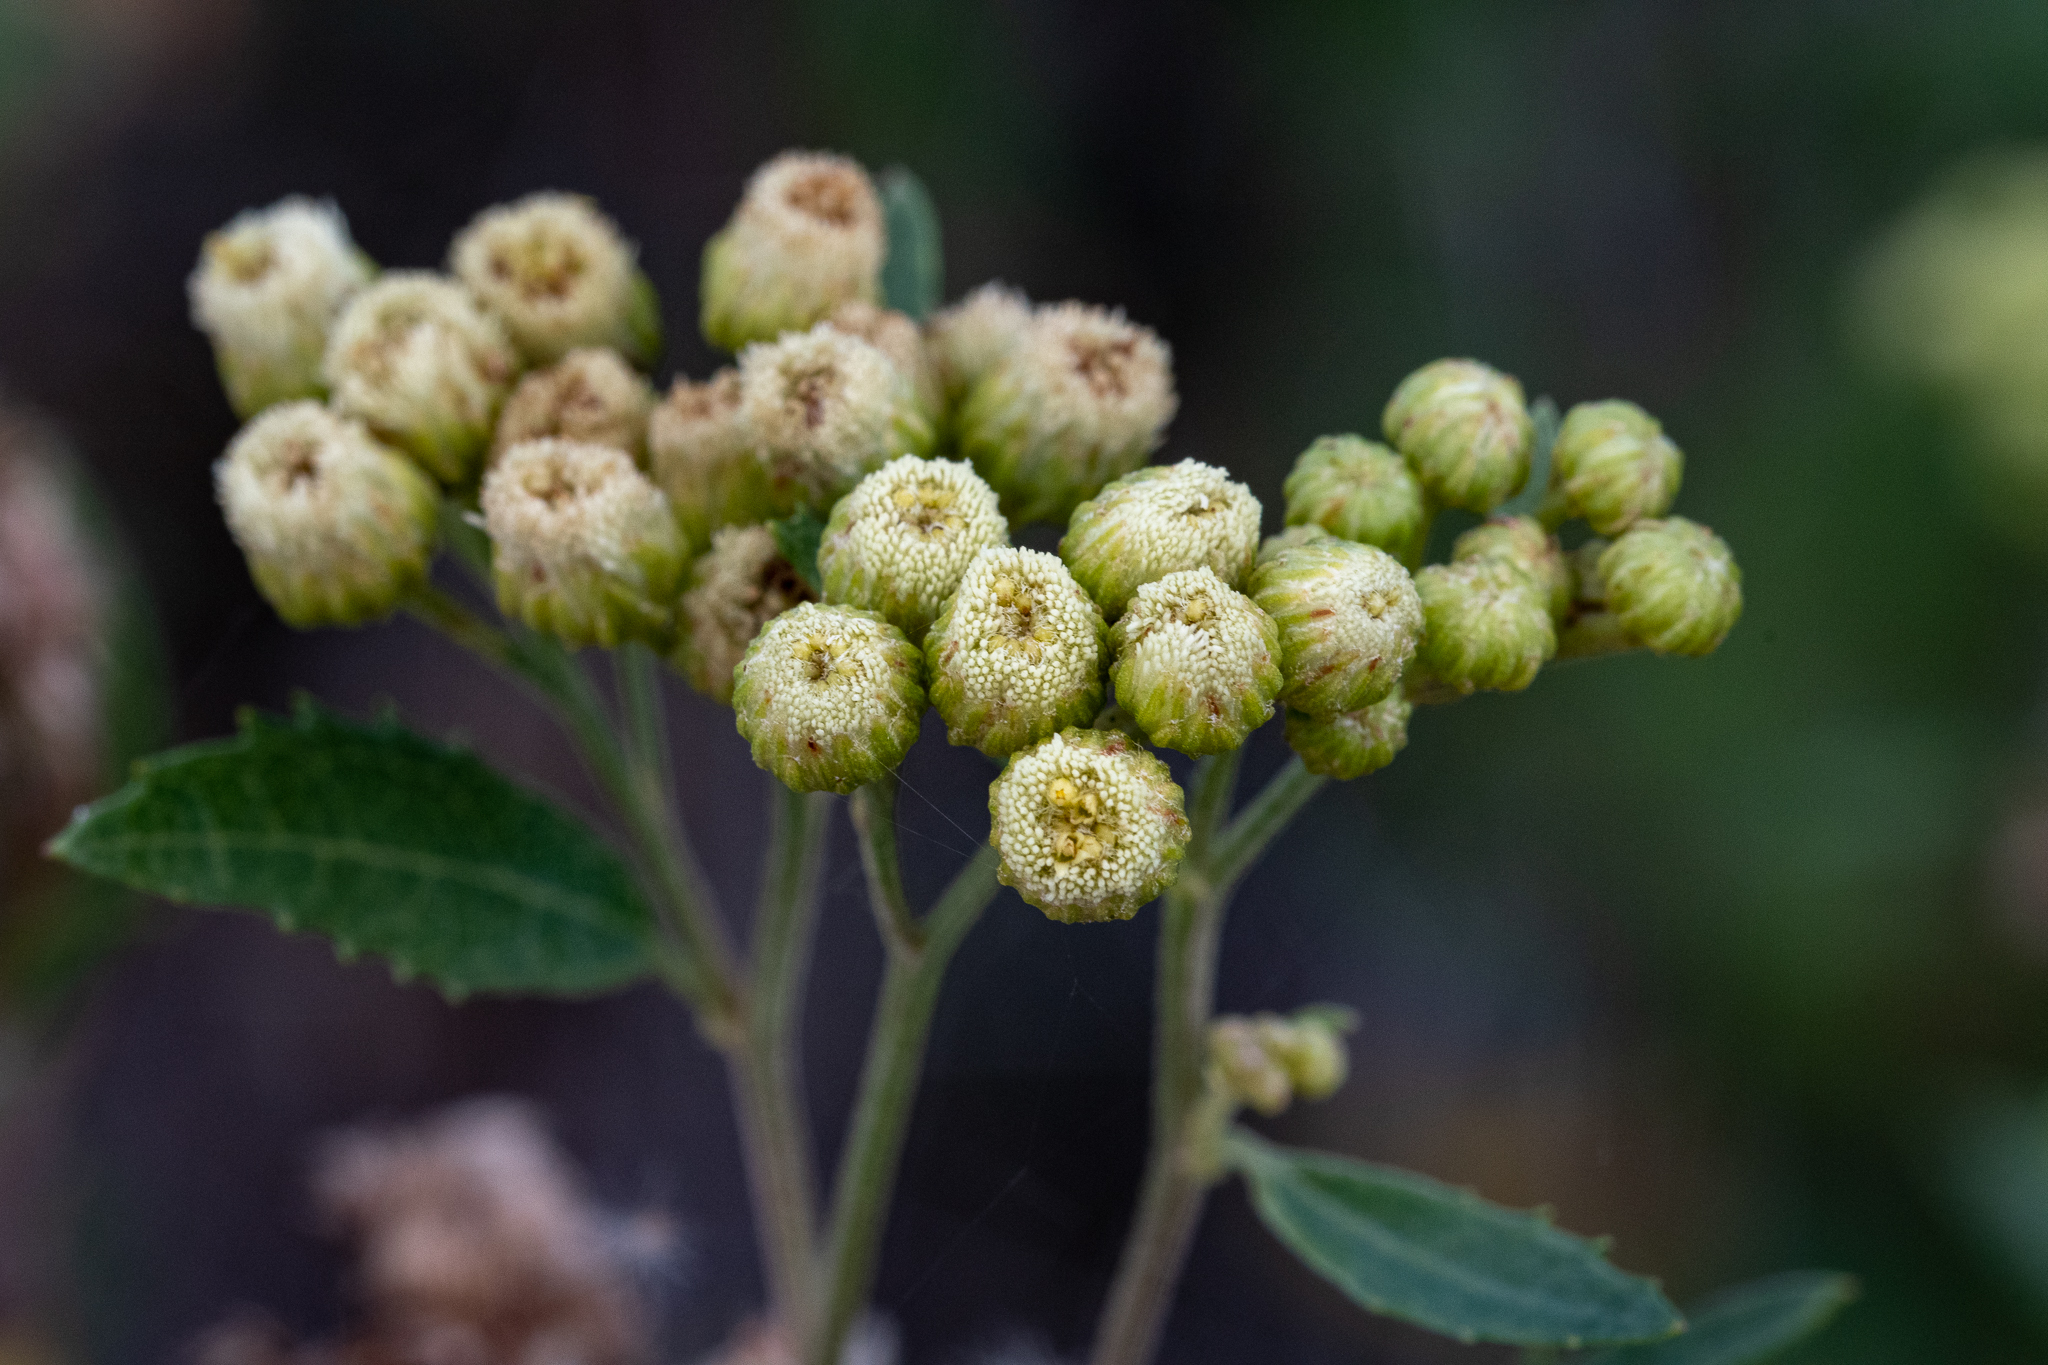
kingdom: Plantae
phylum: Tracheophyta
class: Magnoliopsida
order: Asterales
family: Asteraceae
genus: Nidorella
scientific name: Nidorella ivifolia
